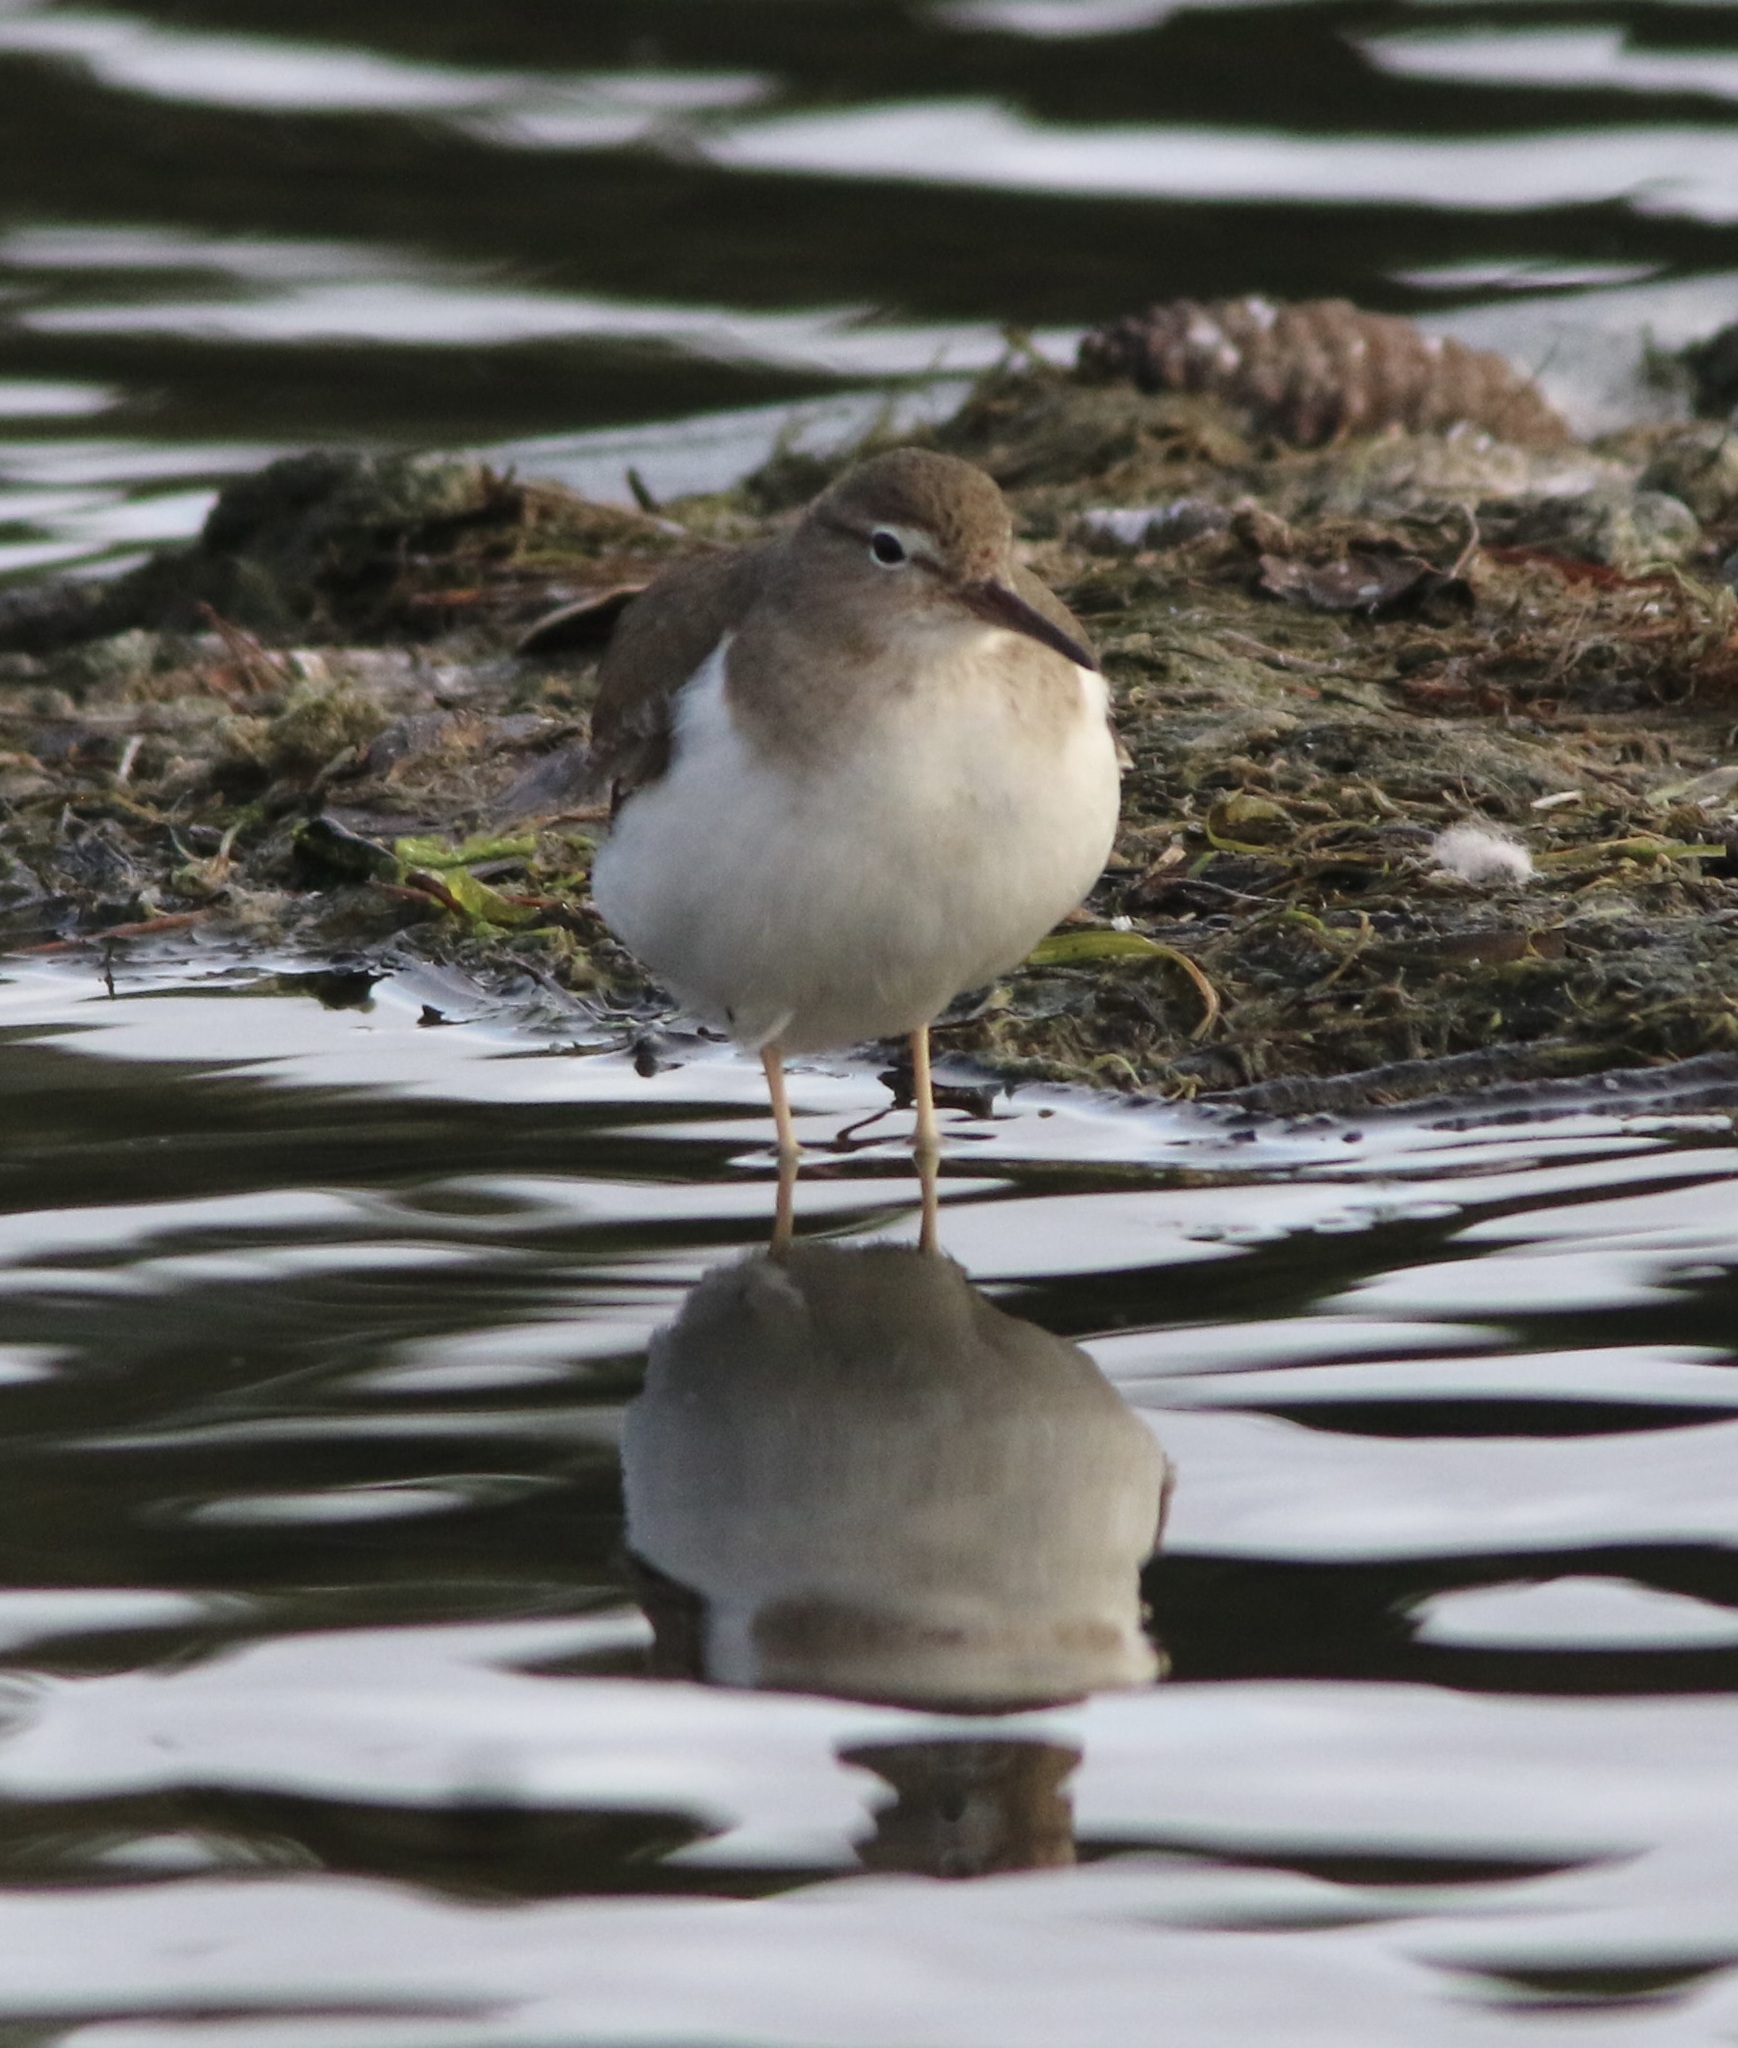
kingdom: Animalia
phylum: Chordata
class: Aves
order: Charadriiformes
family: Scolopacidae
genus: Actitis
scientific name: Actitis macularius
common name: Spotted sandpiper
